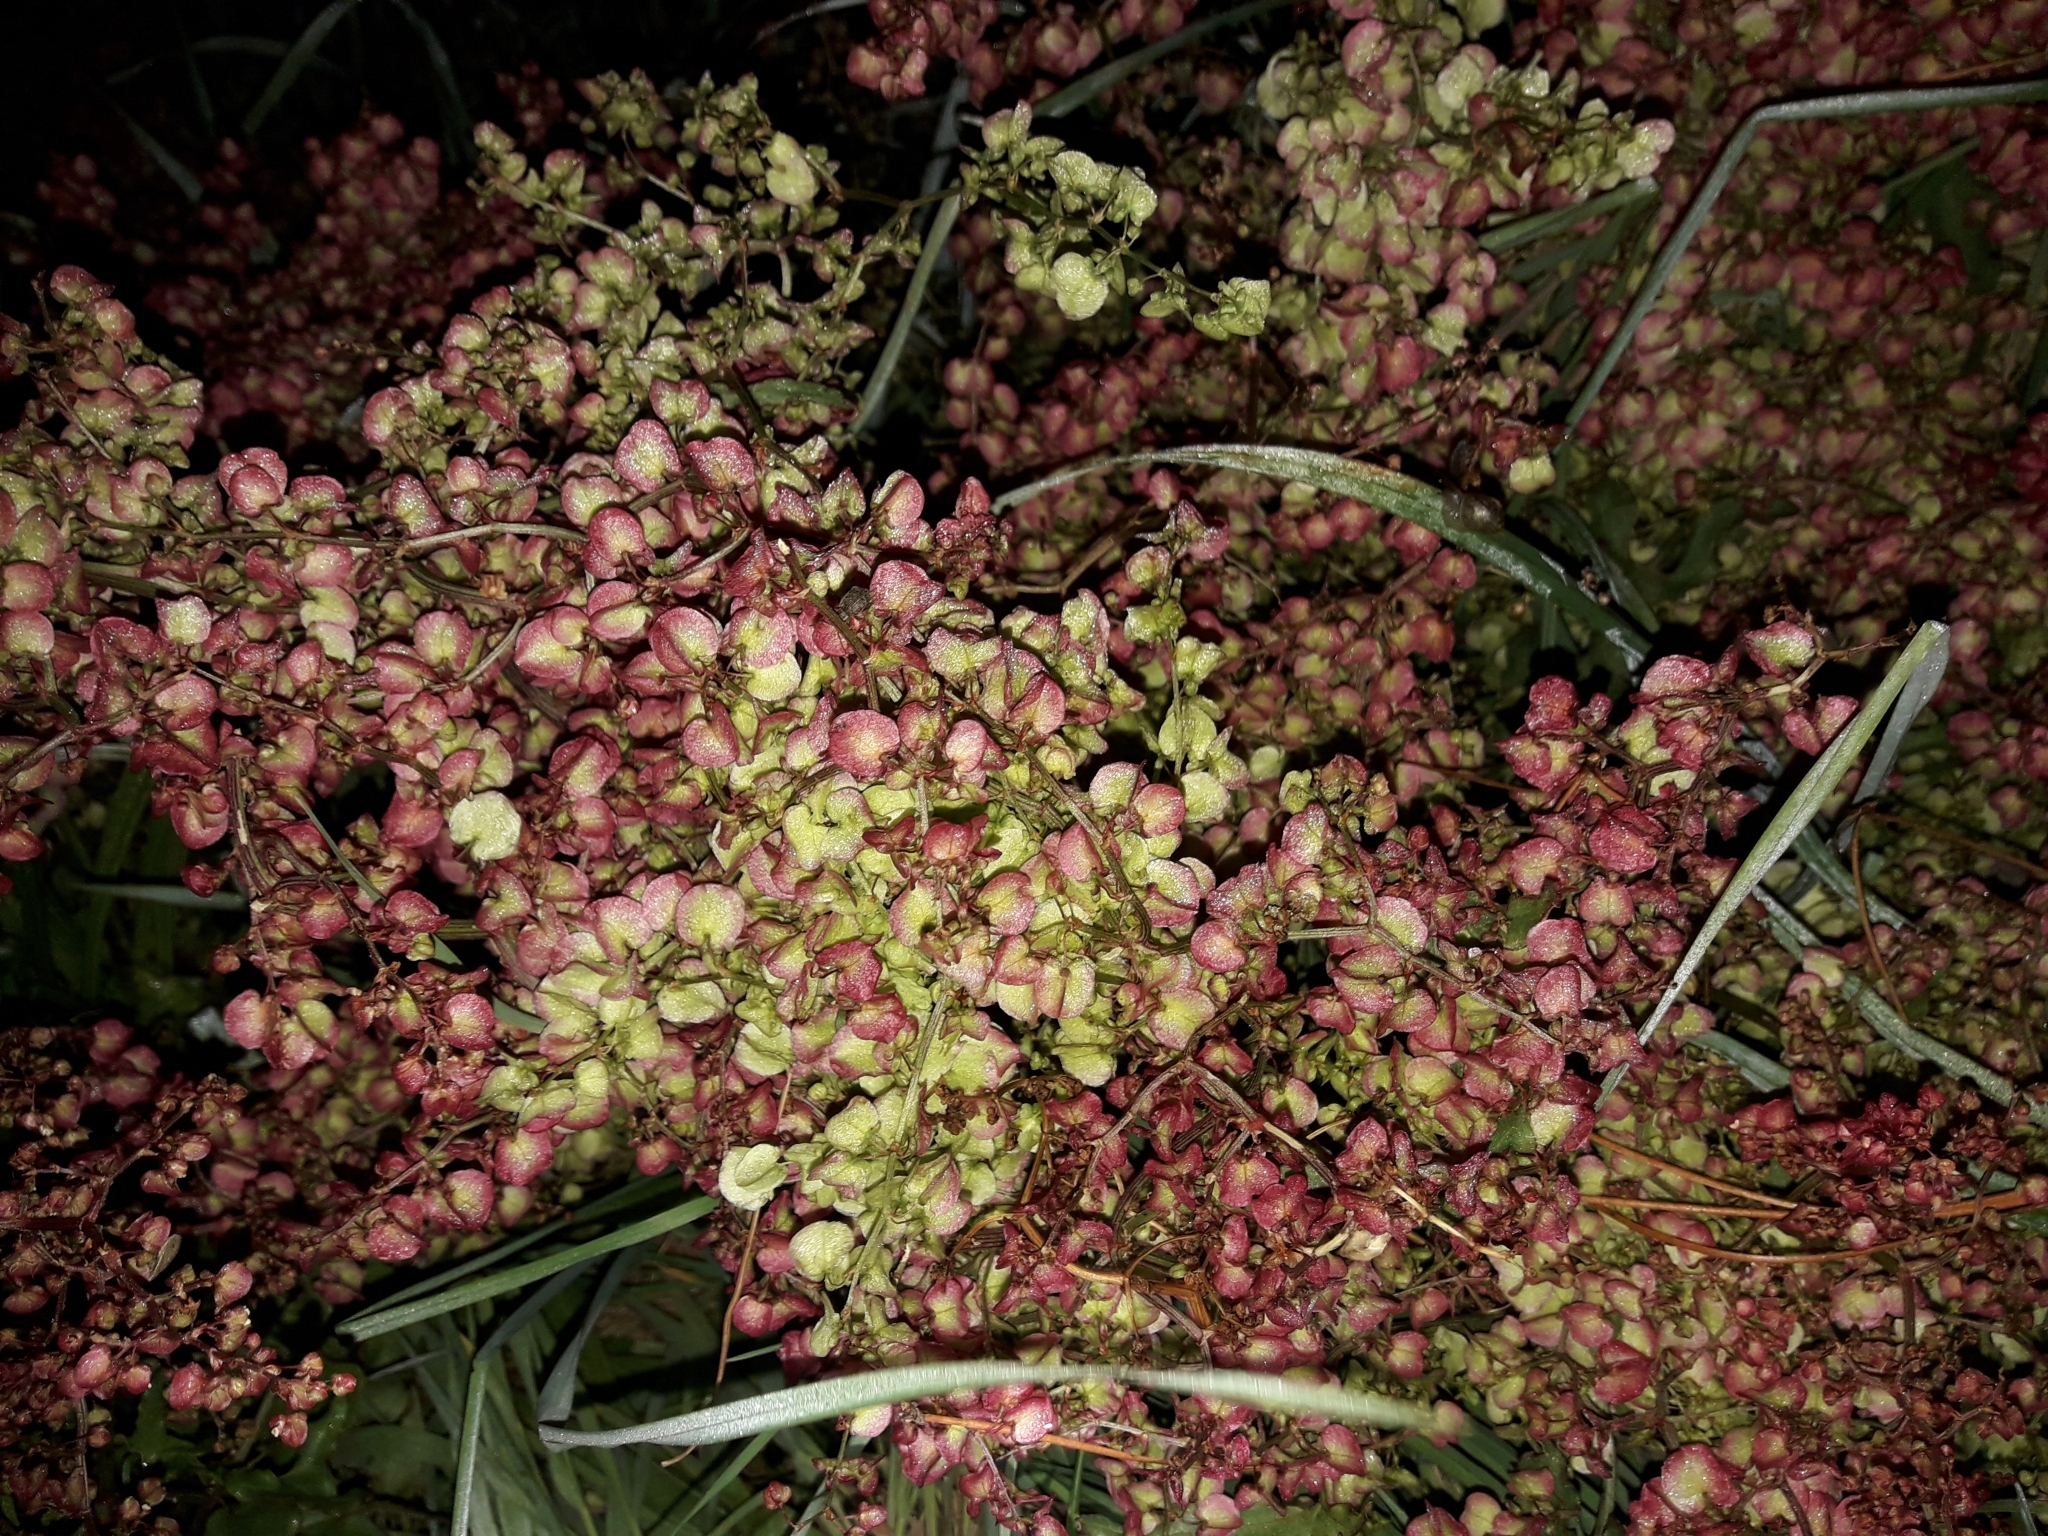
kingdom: Plantae
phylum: Tracheophyta
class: Magnoliopsida
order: Caryophyllales
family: Polygonaceae
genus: Rumex
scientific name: Rumex sagittatus
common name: Climbing dock
